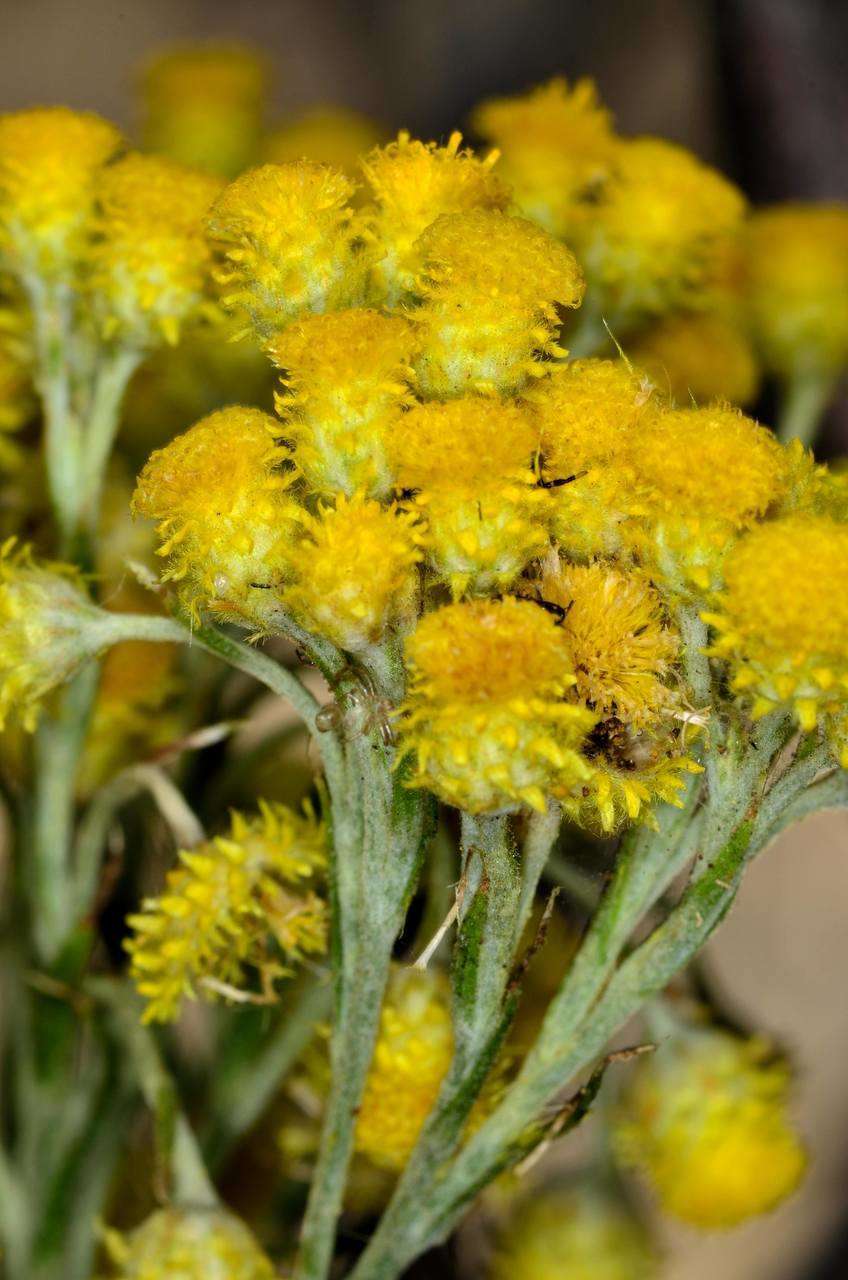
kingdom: Plantae
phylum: Tracheophyta
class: Magnoliopsida
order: Asterales
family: Asteraceae
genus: Chrysocephalum
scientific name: Chrysocephalum semipapposum
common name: Clustered everlasting
